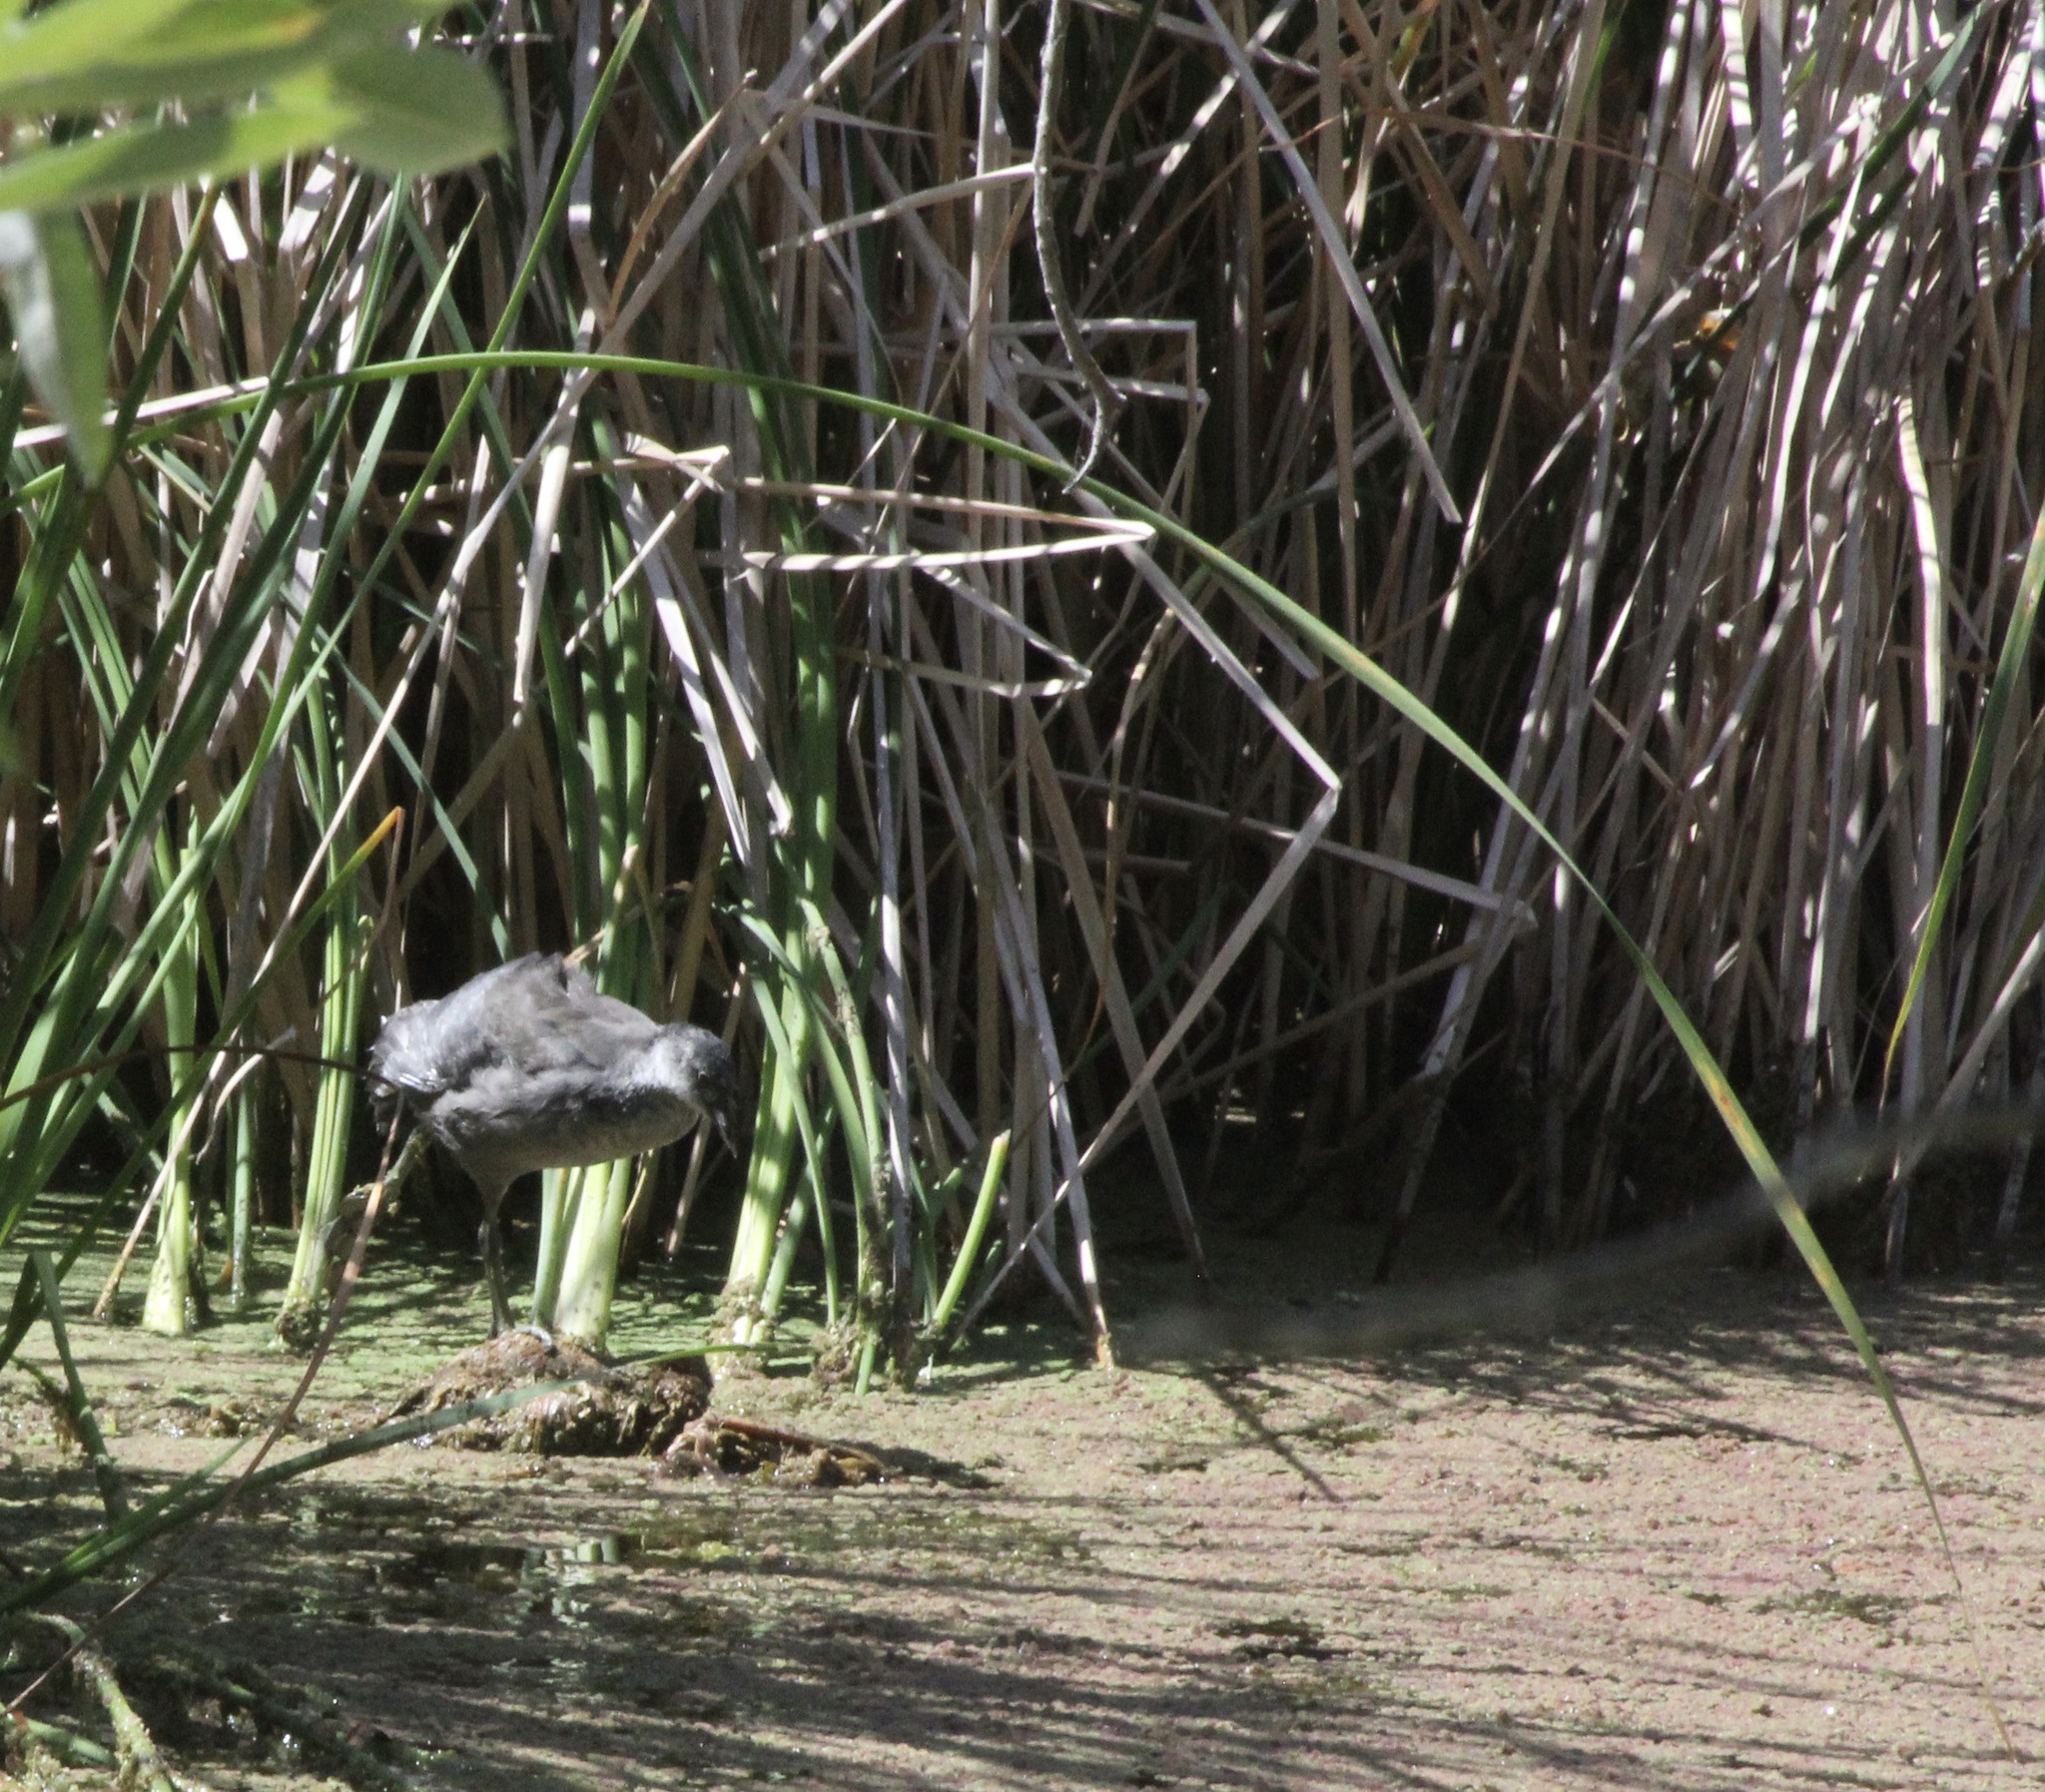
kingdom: Animalia
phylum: Chordata
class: Aves
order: Gruiformes
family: Rallidae
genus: Fulica
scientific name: Fulica americana
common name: American coot
